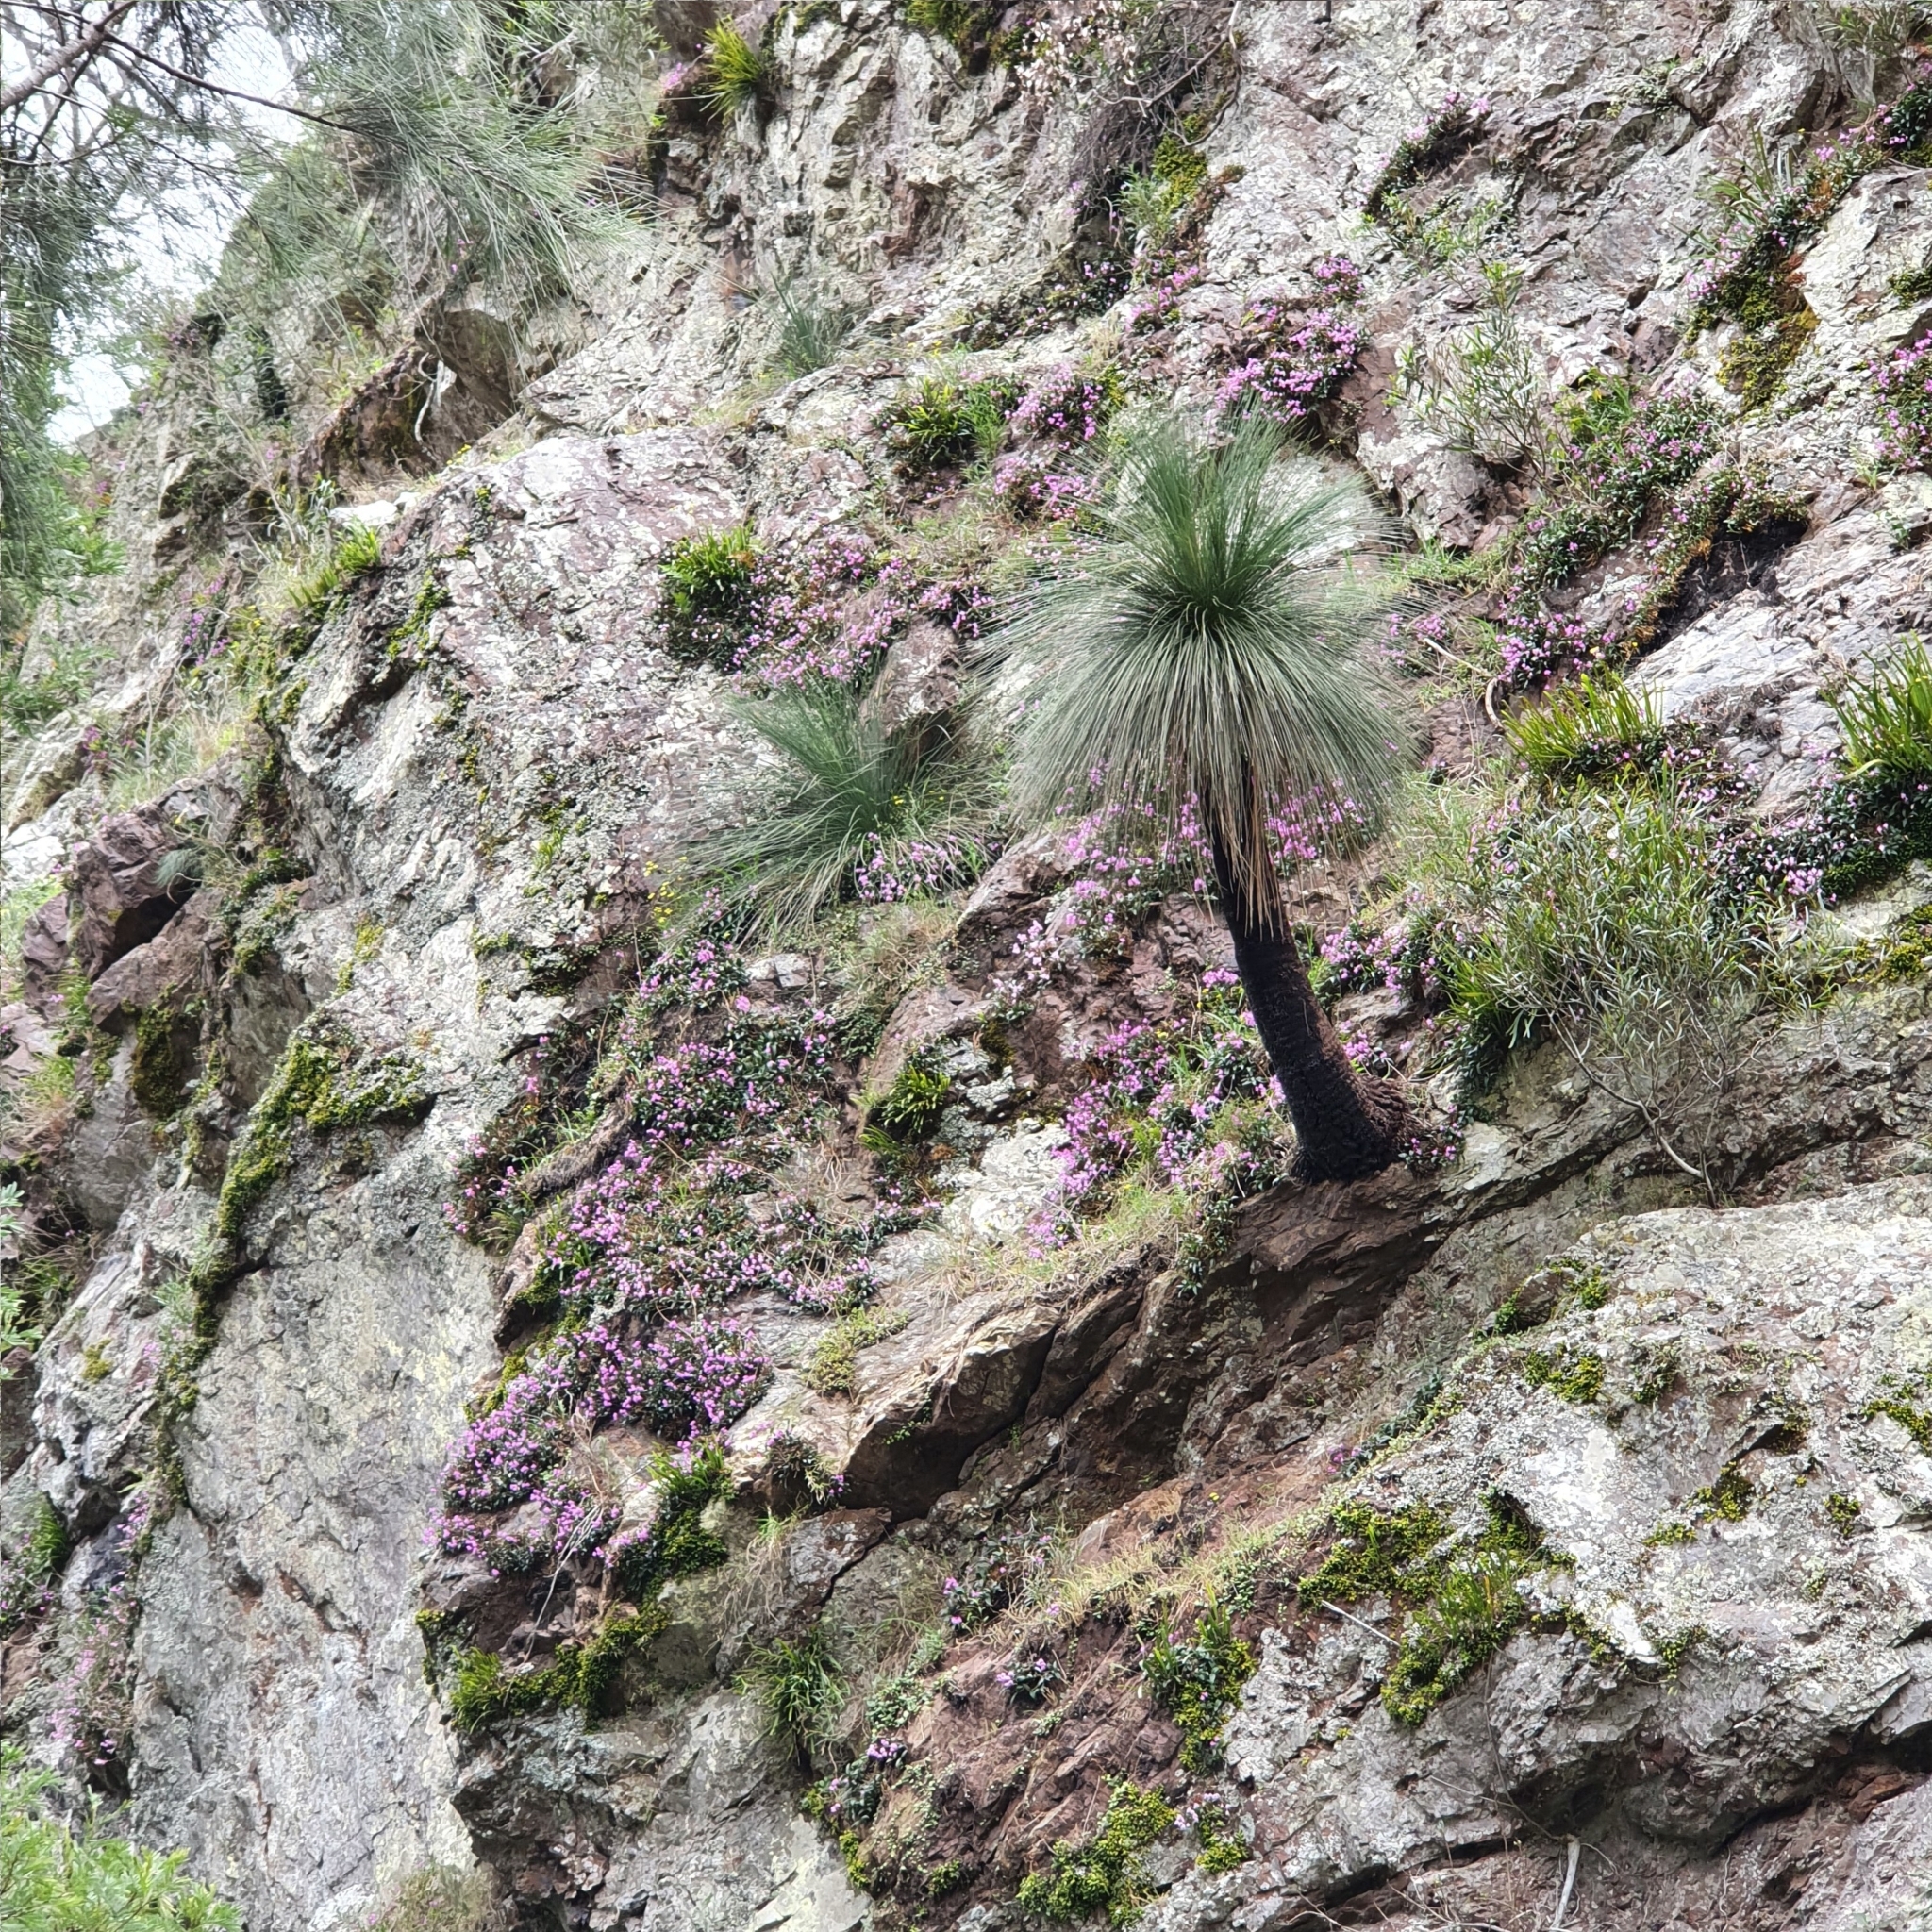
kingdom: Plantae
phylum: Tracheophyta
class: Liliopsida
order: Asparagales
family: Orchidaceae
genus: Dendrobium
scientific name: Dendrobium kingianum
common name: Pink rock orchid
